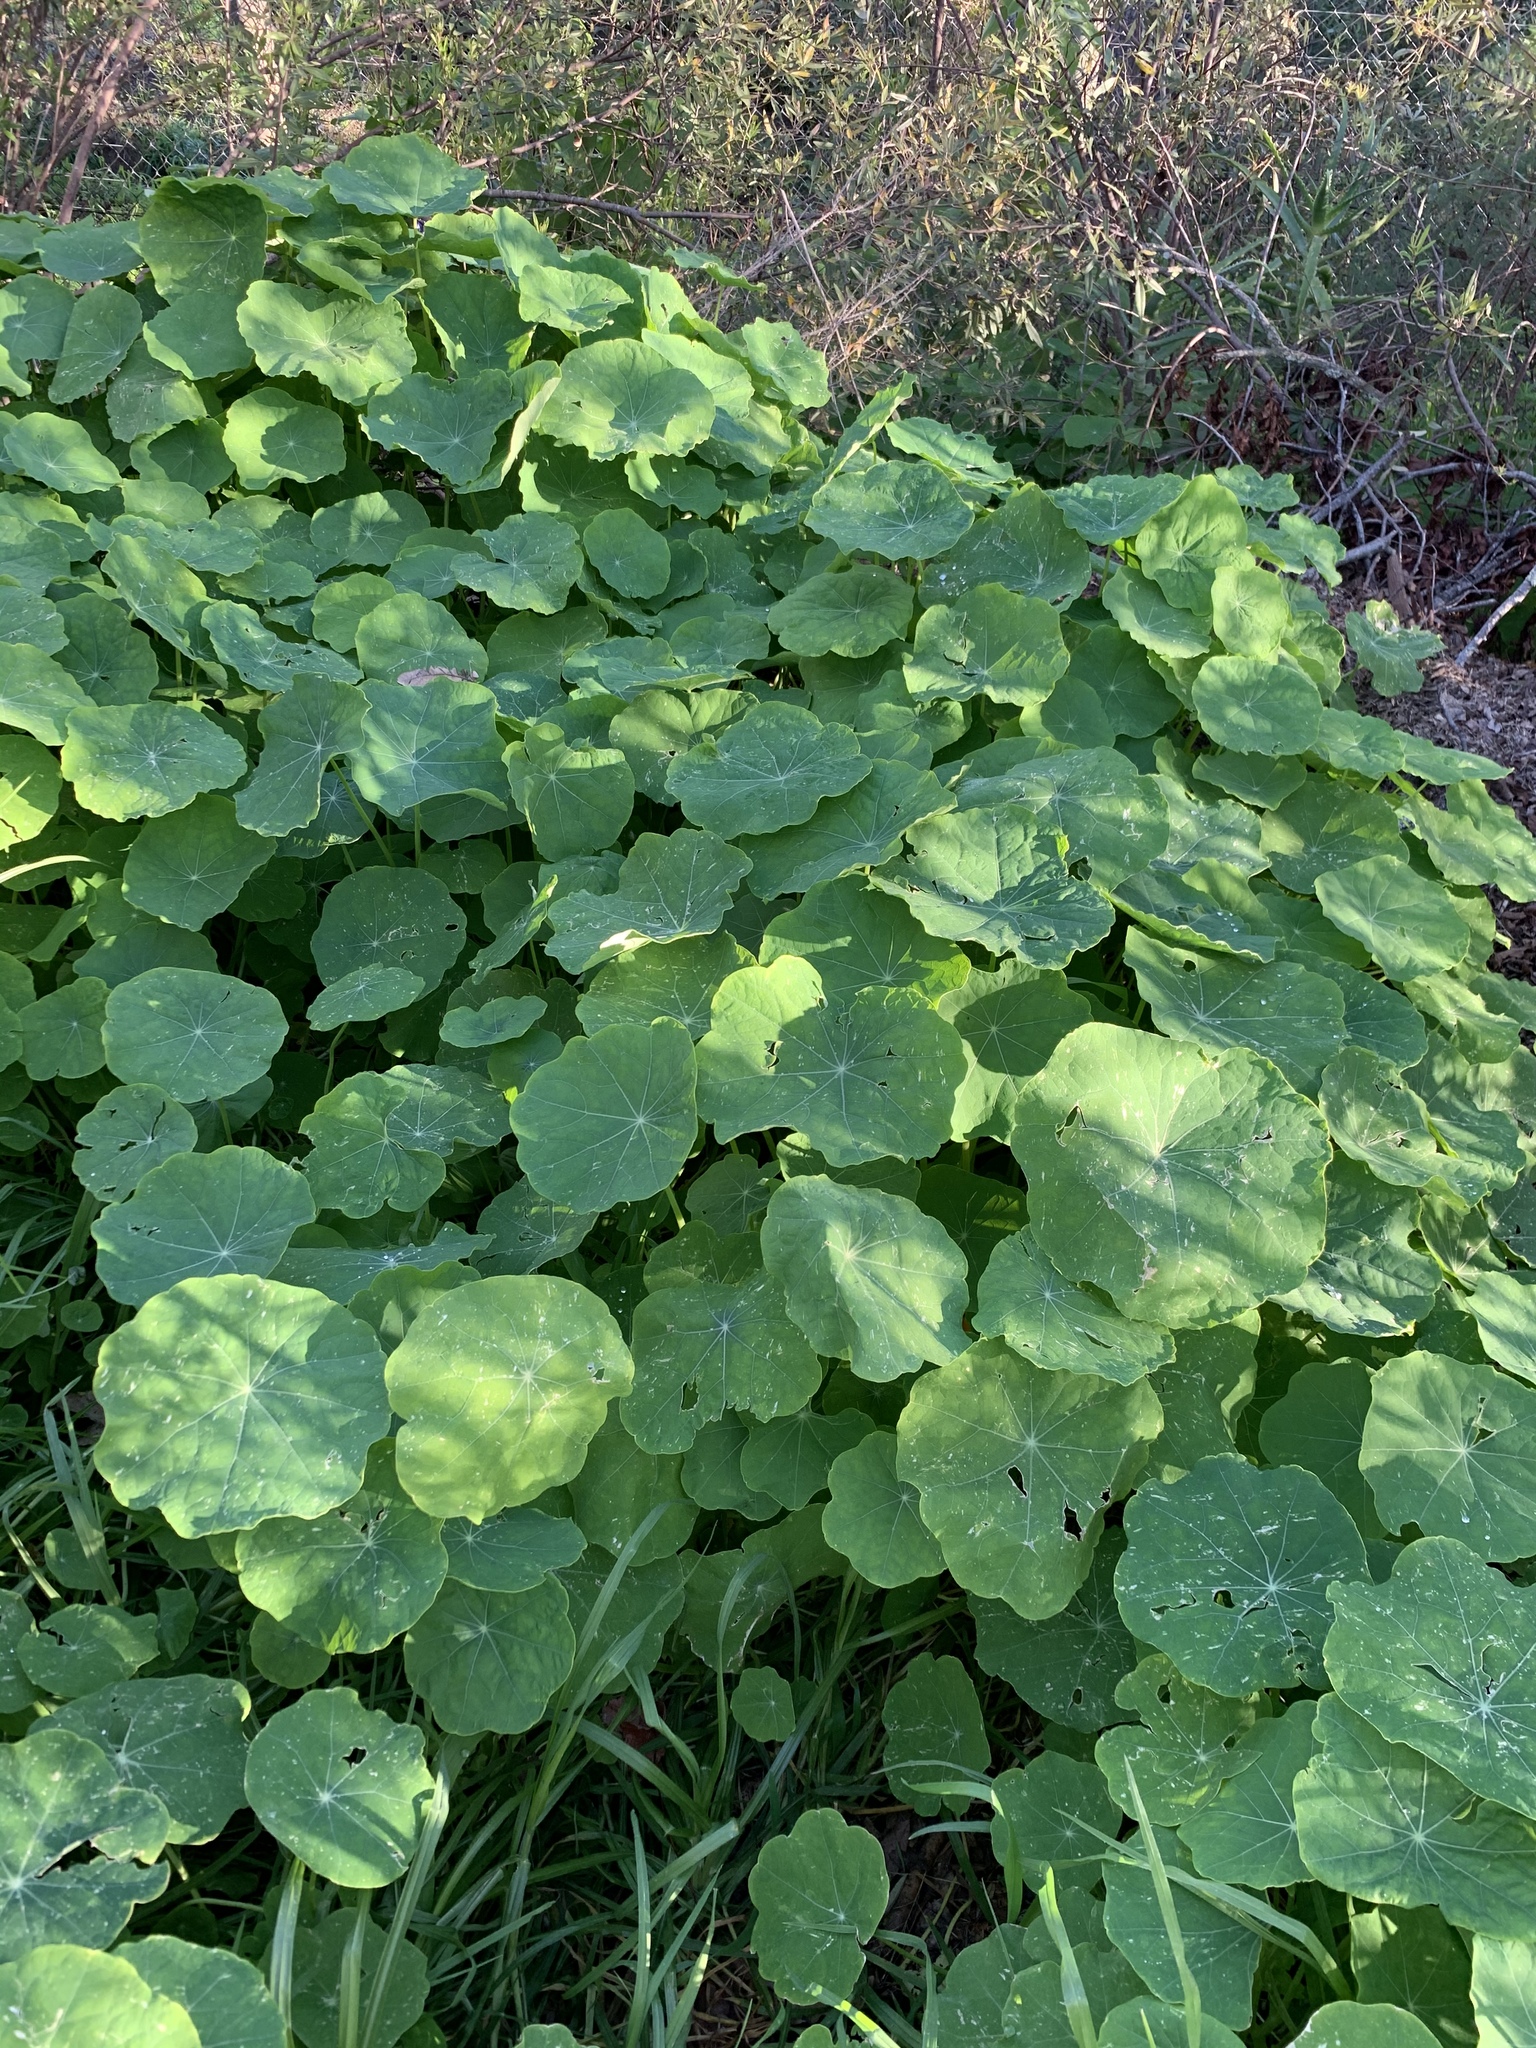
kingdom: Plantae
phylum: Tracheophyta
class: Magnoliopsida
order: Brassicales
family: Tropaeolaceae
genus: Tropaeolum
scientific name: Tropaeolum majus
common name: Nasturtium
